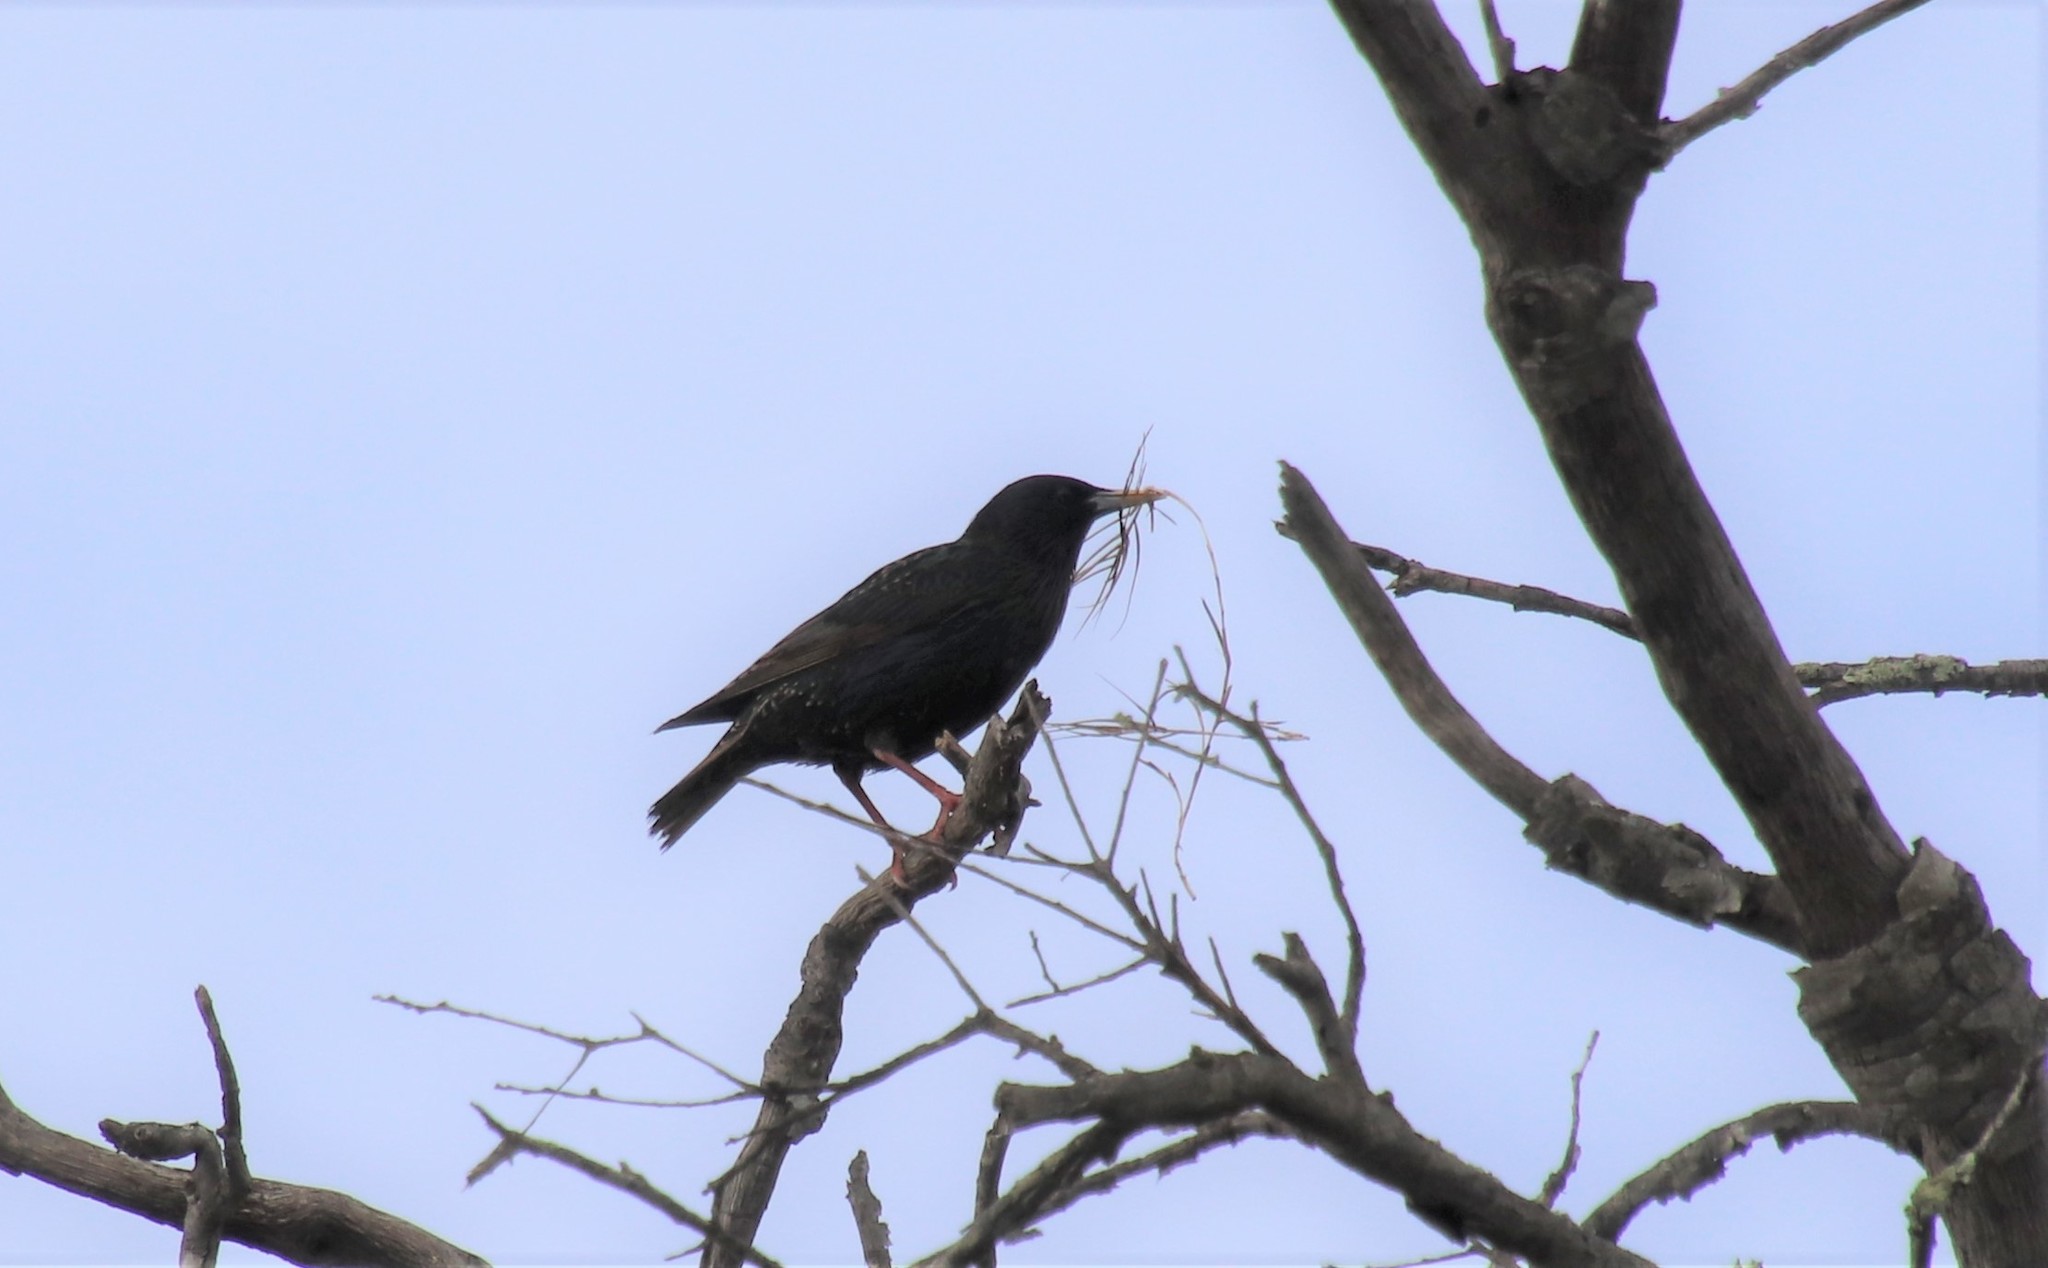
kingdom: Animalia
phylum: Chordata
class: Aves
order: Passeriformes
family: Sturnidae
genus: Sturnus
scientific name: Sturnus vulgaris
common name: Common starling
